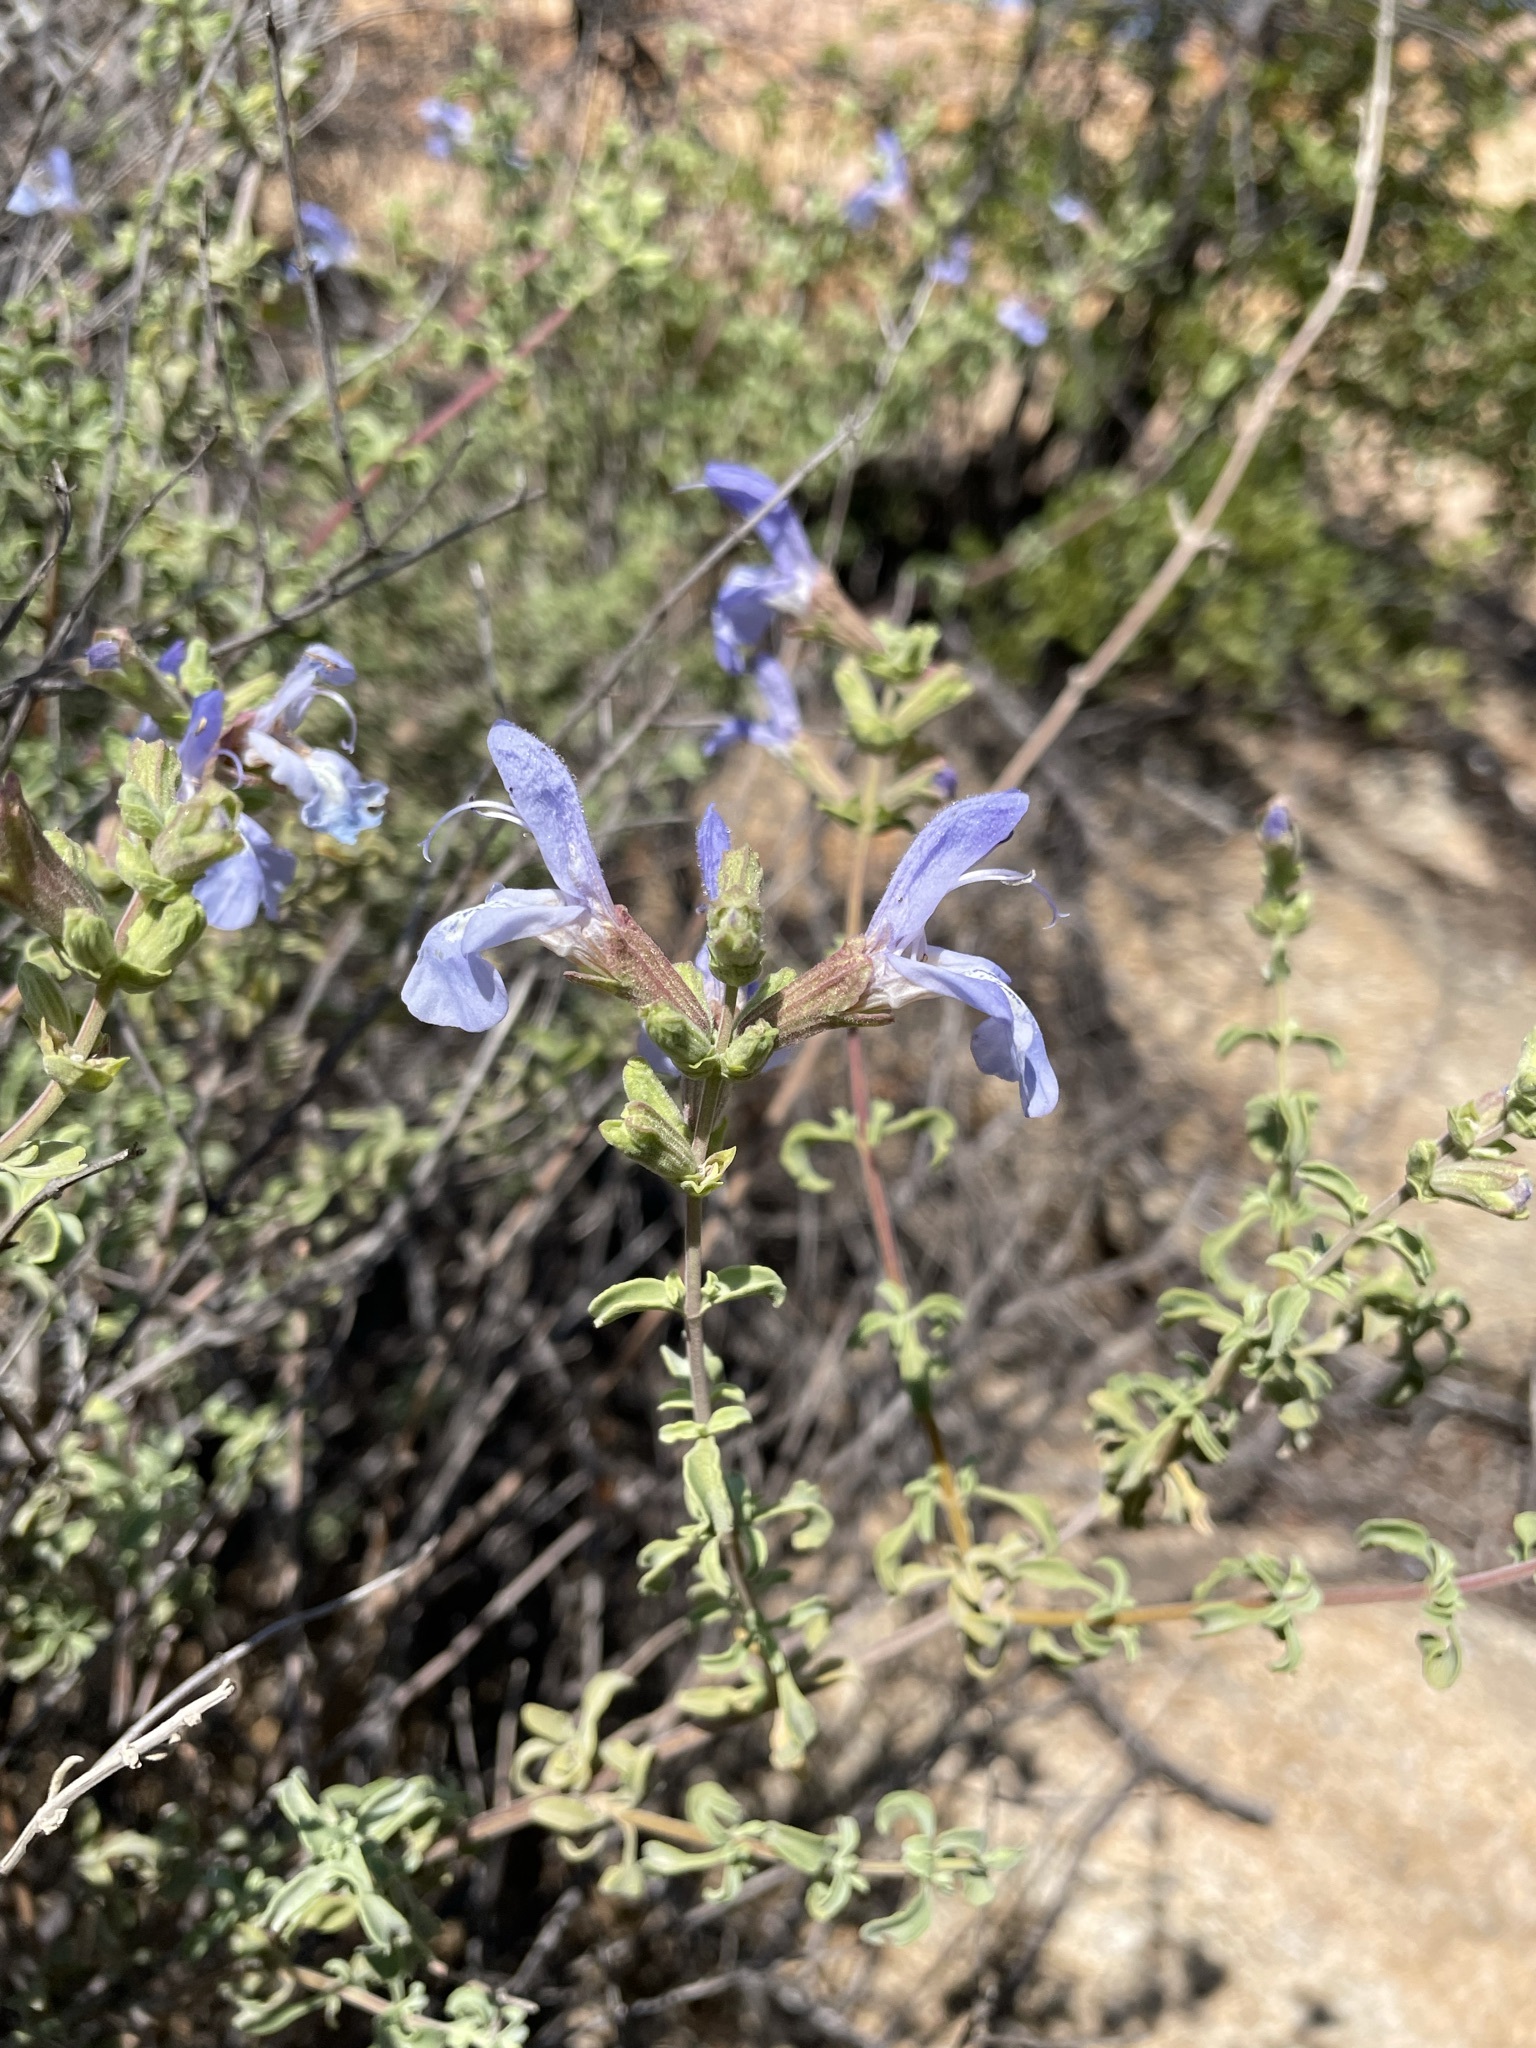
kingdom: Plantae
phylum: Tracheophyta
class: Magnoliopsida
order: Lamiales
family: Lamiaceae
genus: Salvia
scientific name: Salvia dentata
